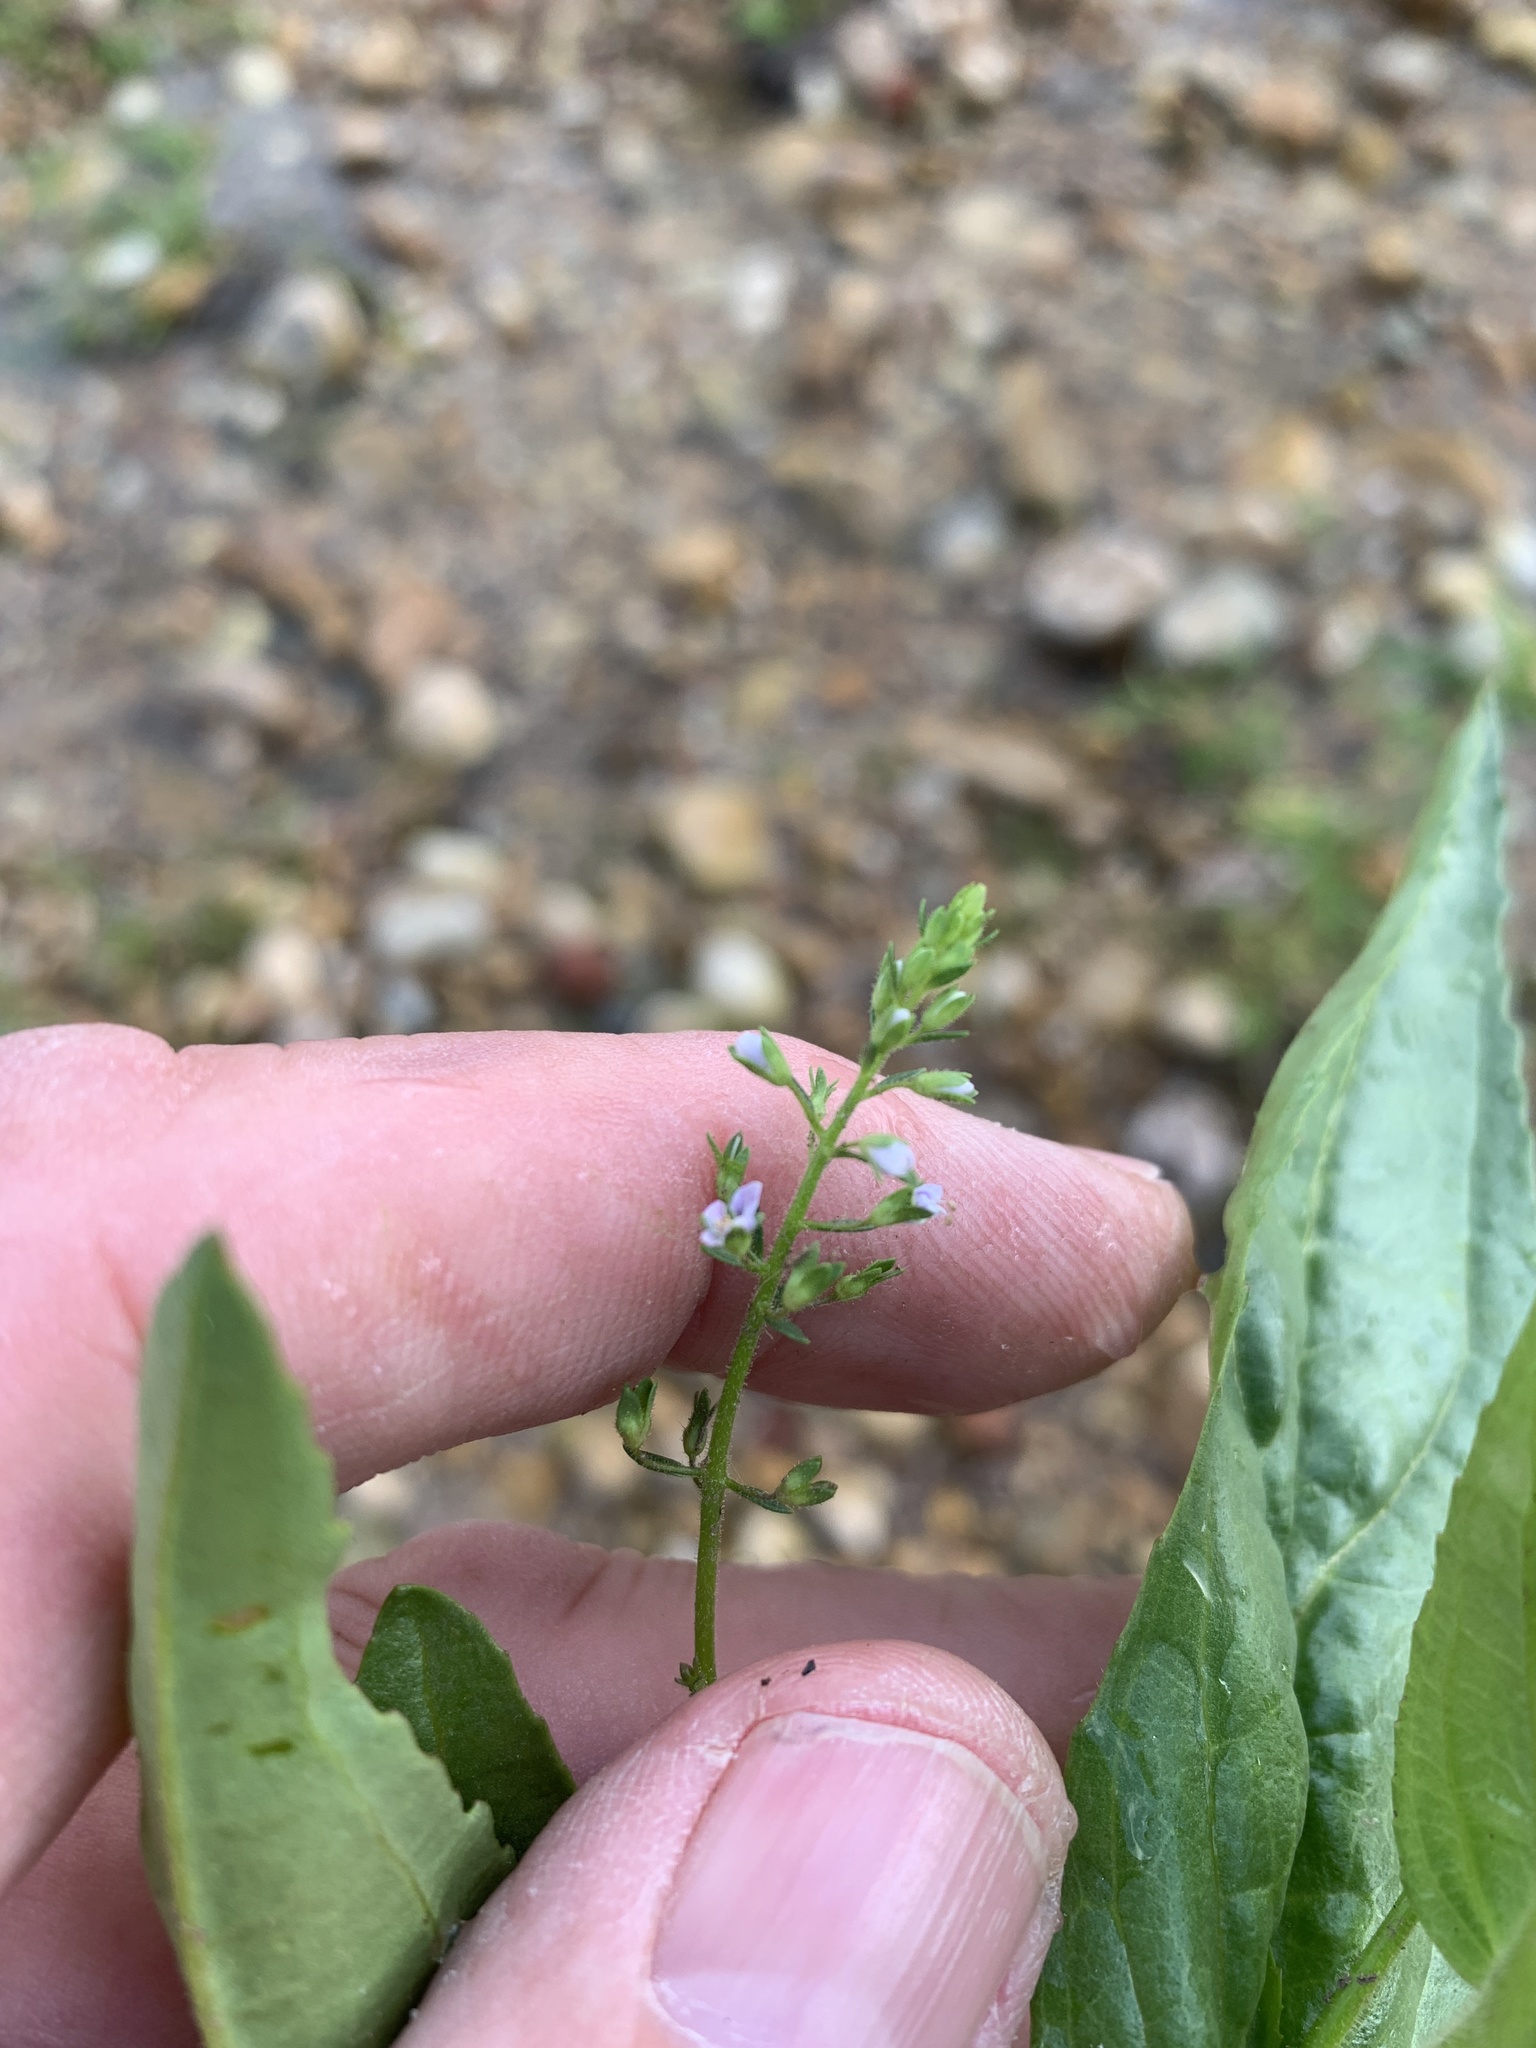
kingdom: Plantae
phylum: Tracheophyta
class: Magnoliopsida
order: Lamiales
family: Plantaginaceae
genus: Veronica
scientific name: Veronica anagallis-aquatica
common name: Water speedwell
